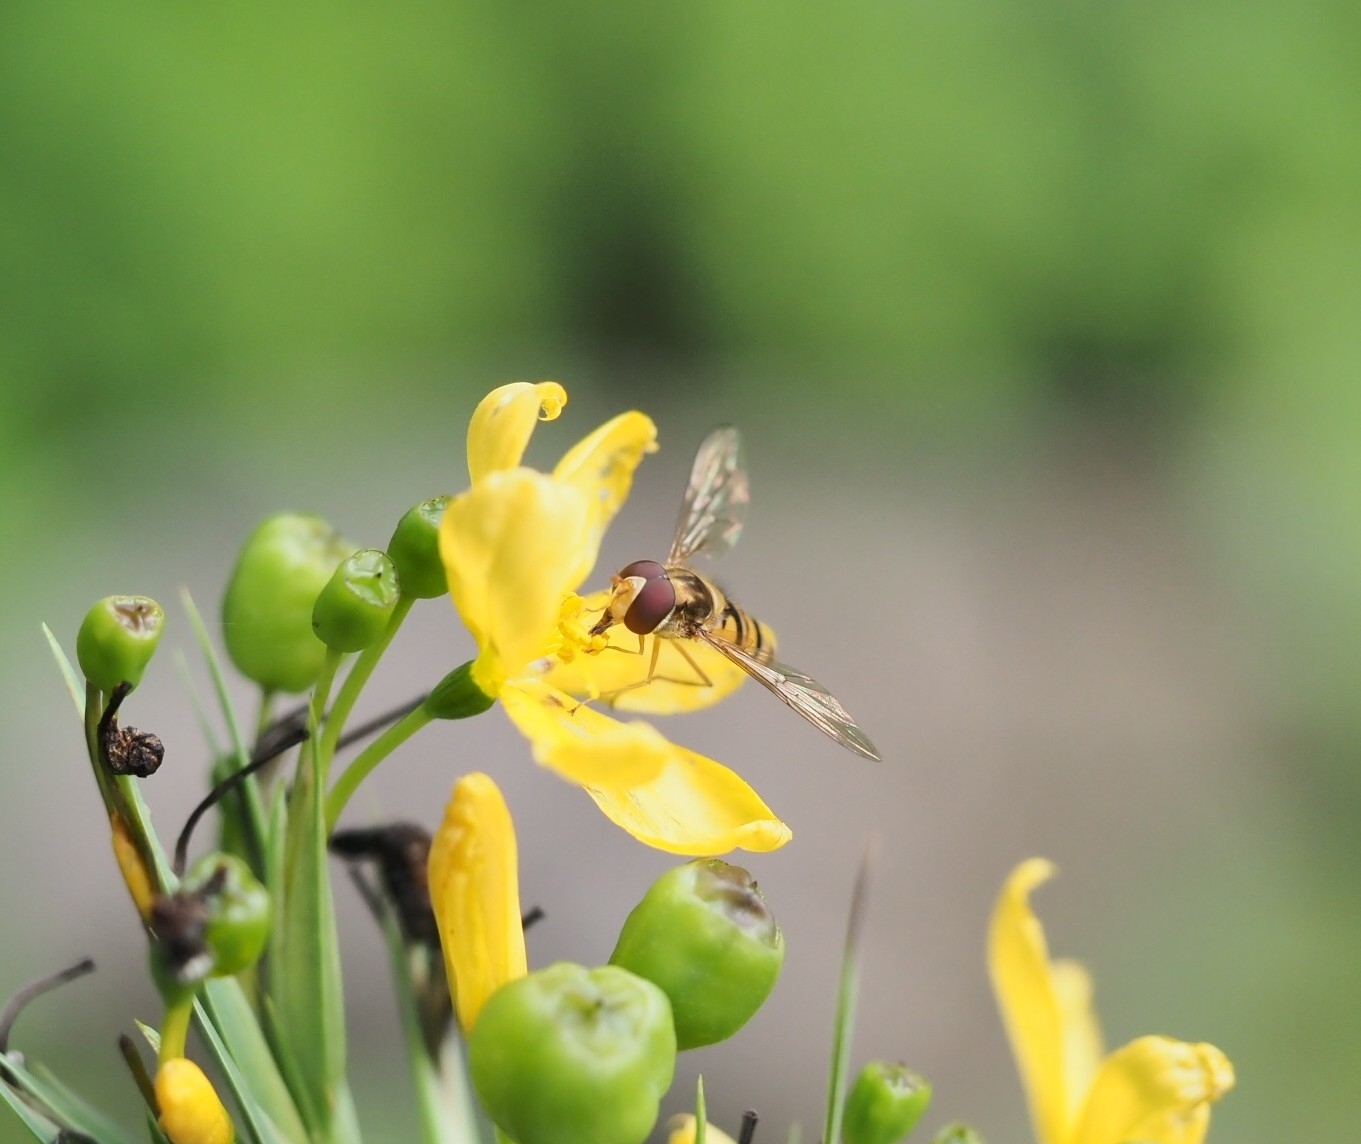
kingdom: Animalia
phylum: Arthropoda
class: Insecta
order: Diptera
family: Syrphidae
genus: Episyrphus
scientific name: Episyrphus balteatus
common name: Marmalade hoverfly
